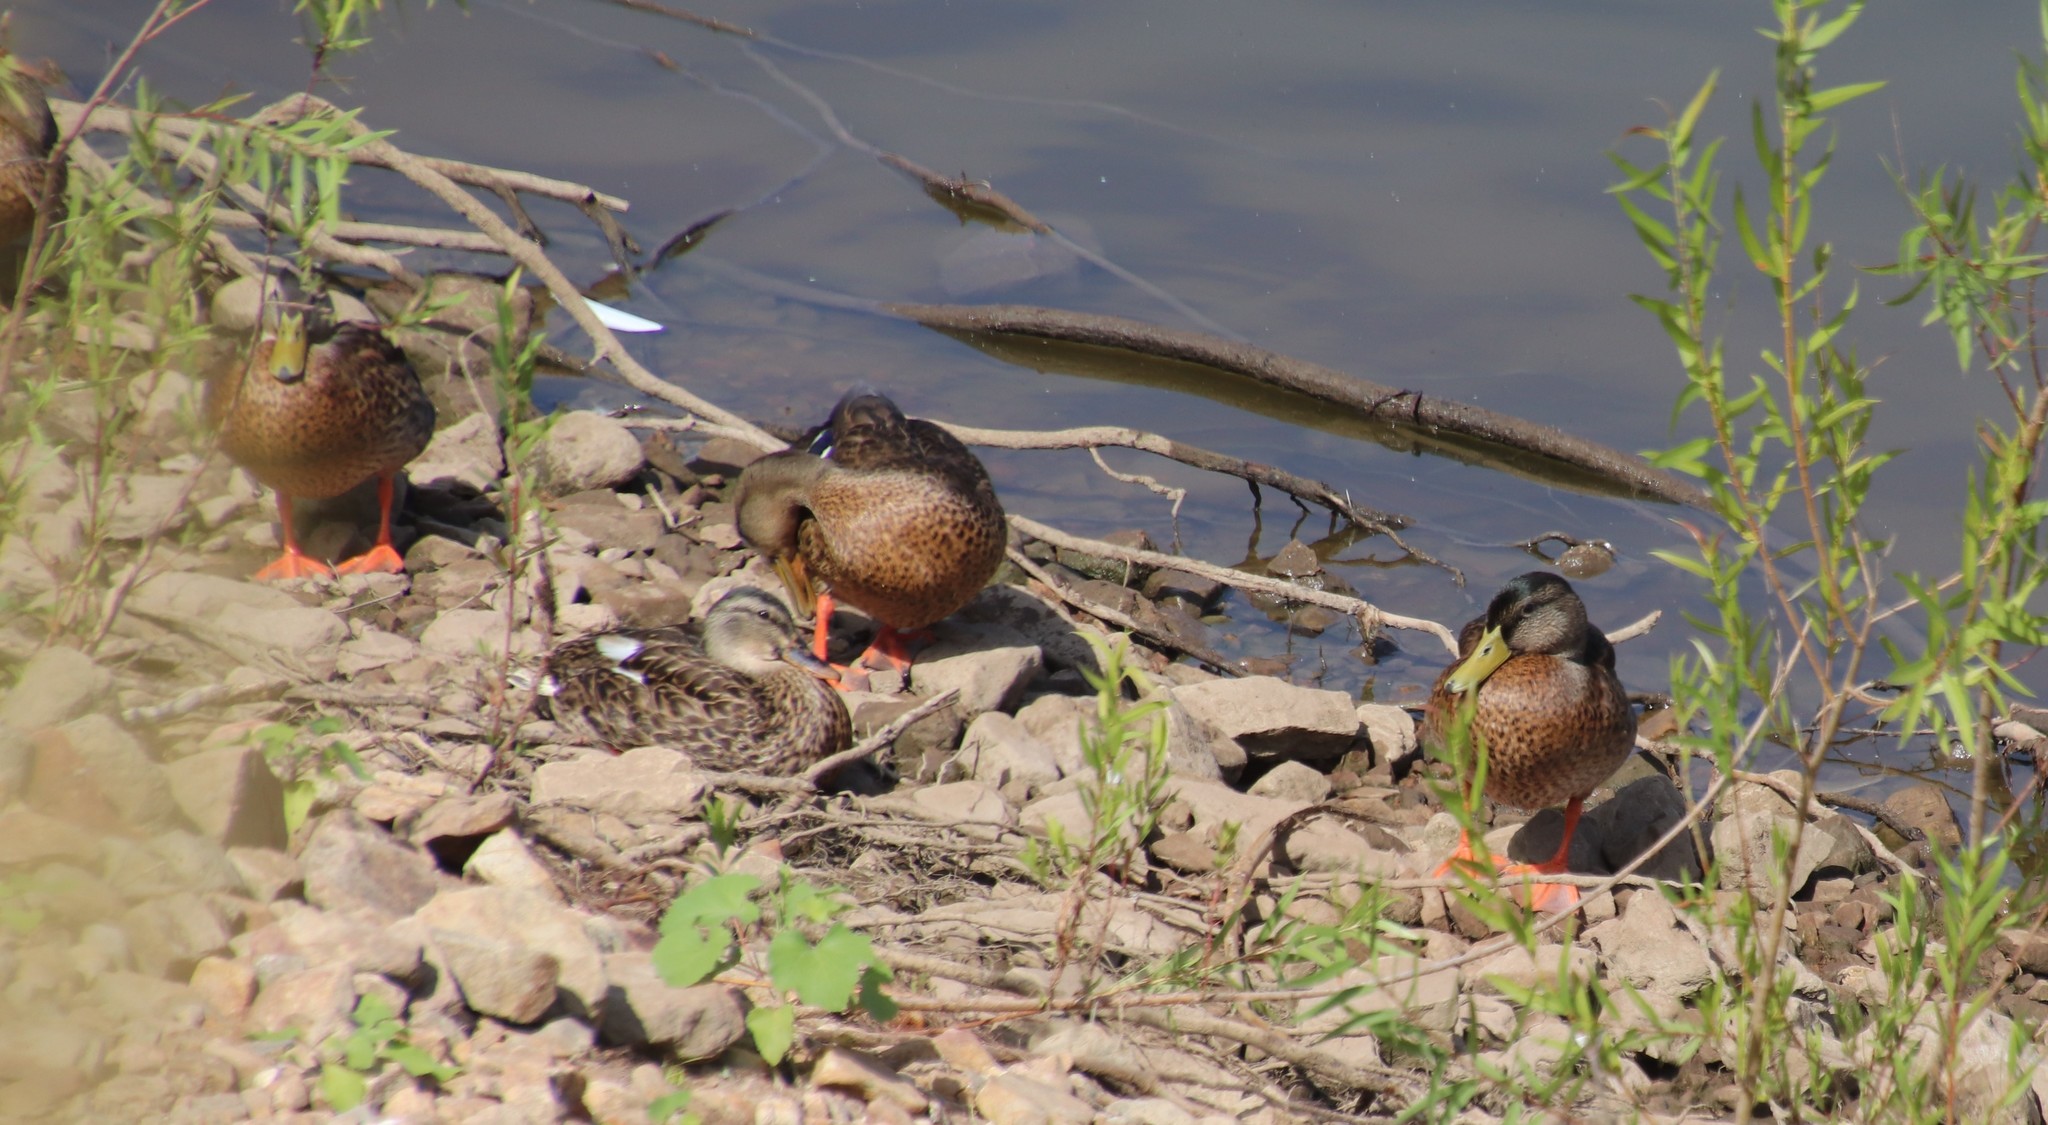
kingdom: Animalia
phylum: Chordata
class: Aves
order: Anseriformes
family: Anatidae
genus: Anas
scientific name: Anas platyrhynchos
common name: Mallard
